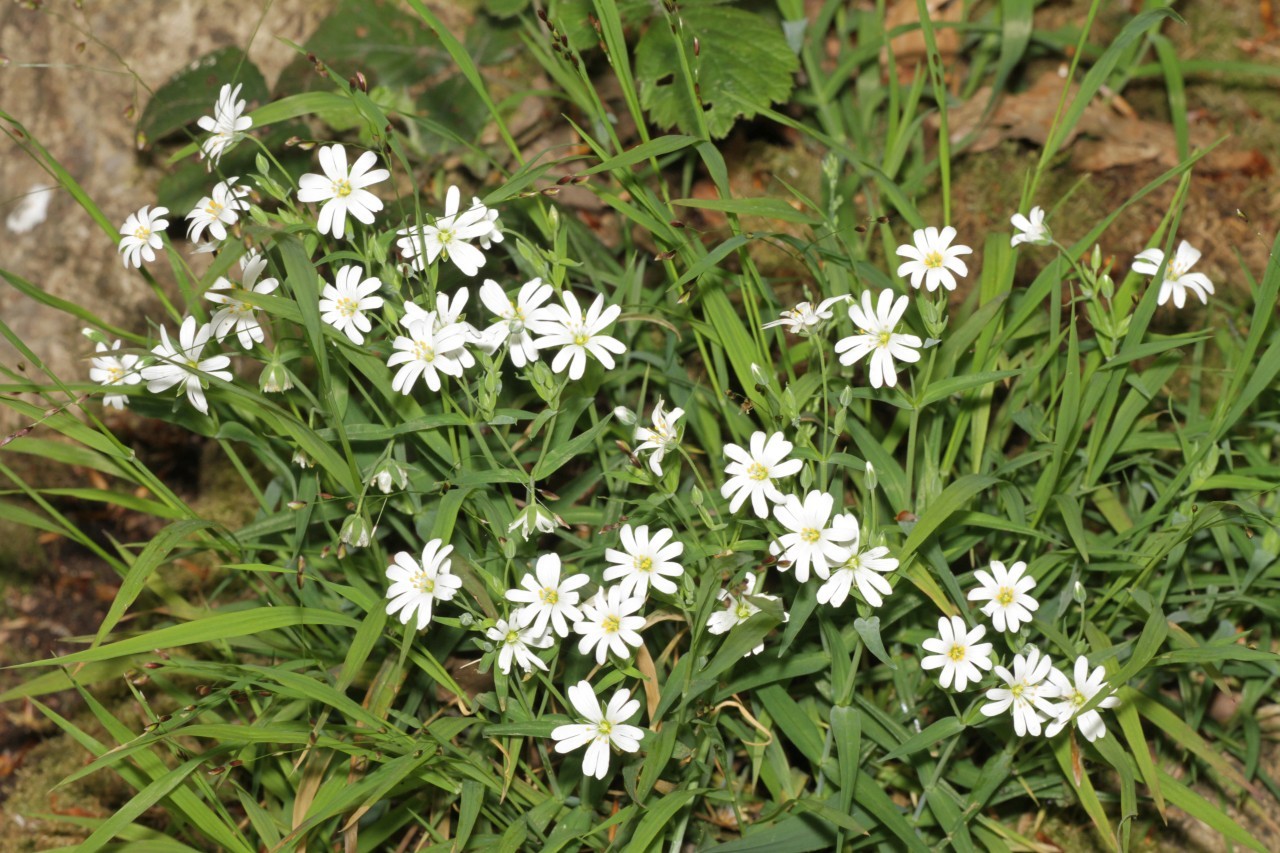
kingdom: Plantae
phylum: Tracheophyta
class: Magnoliopsida
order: Caryophyllales
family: Caryophyllaceae
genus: Rabelera
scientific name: Rabelera holostea
